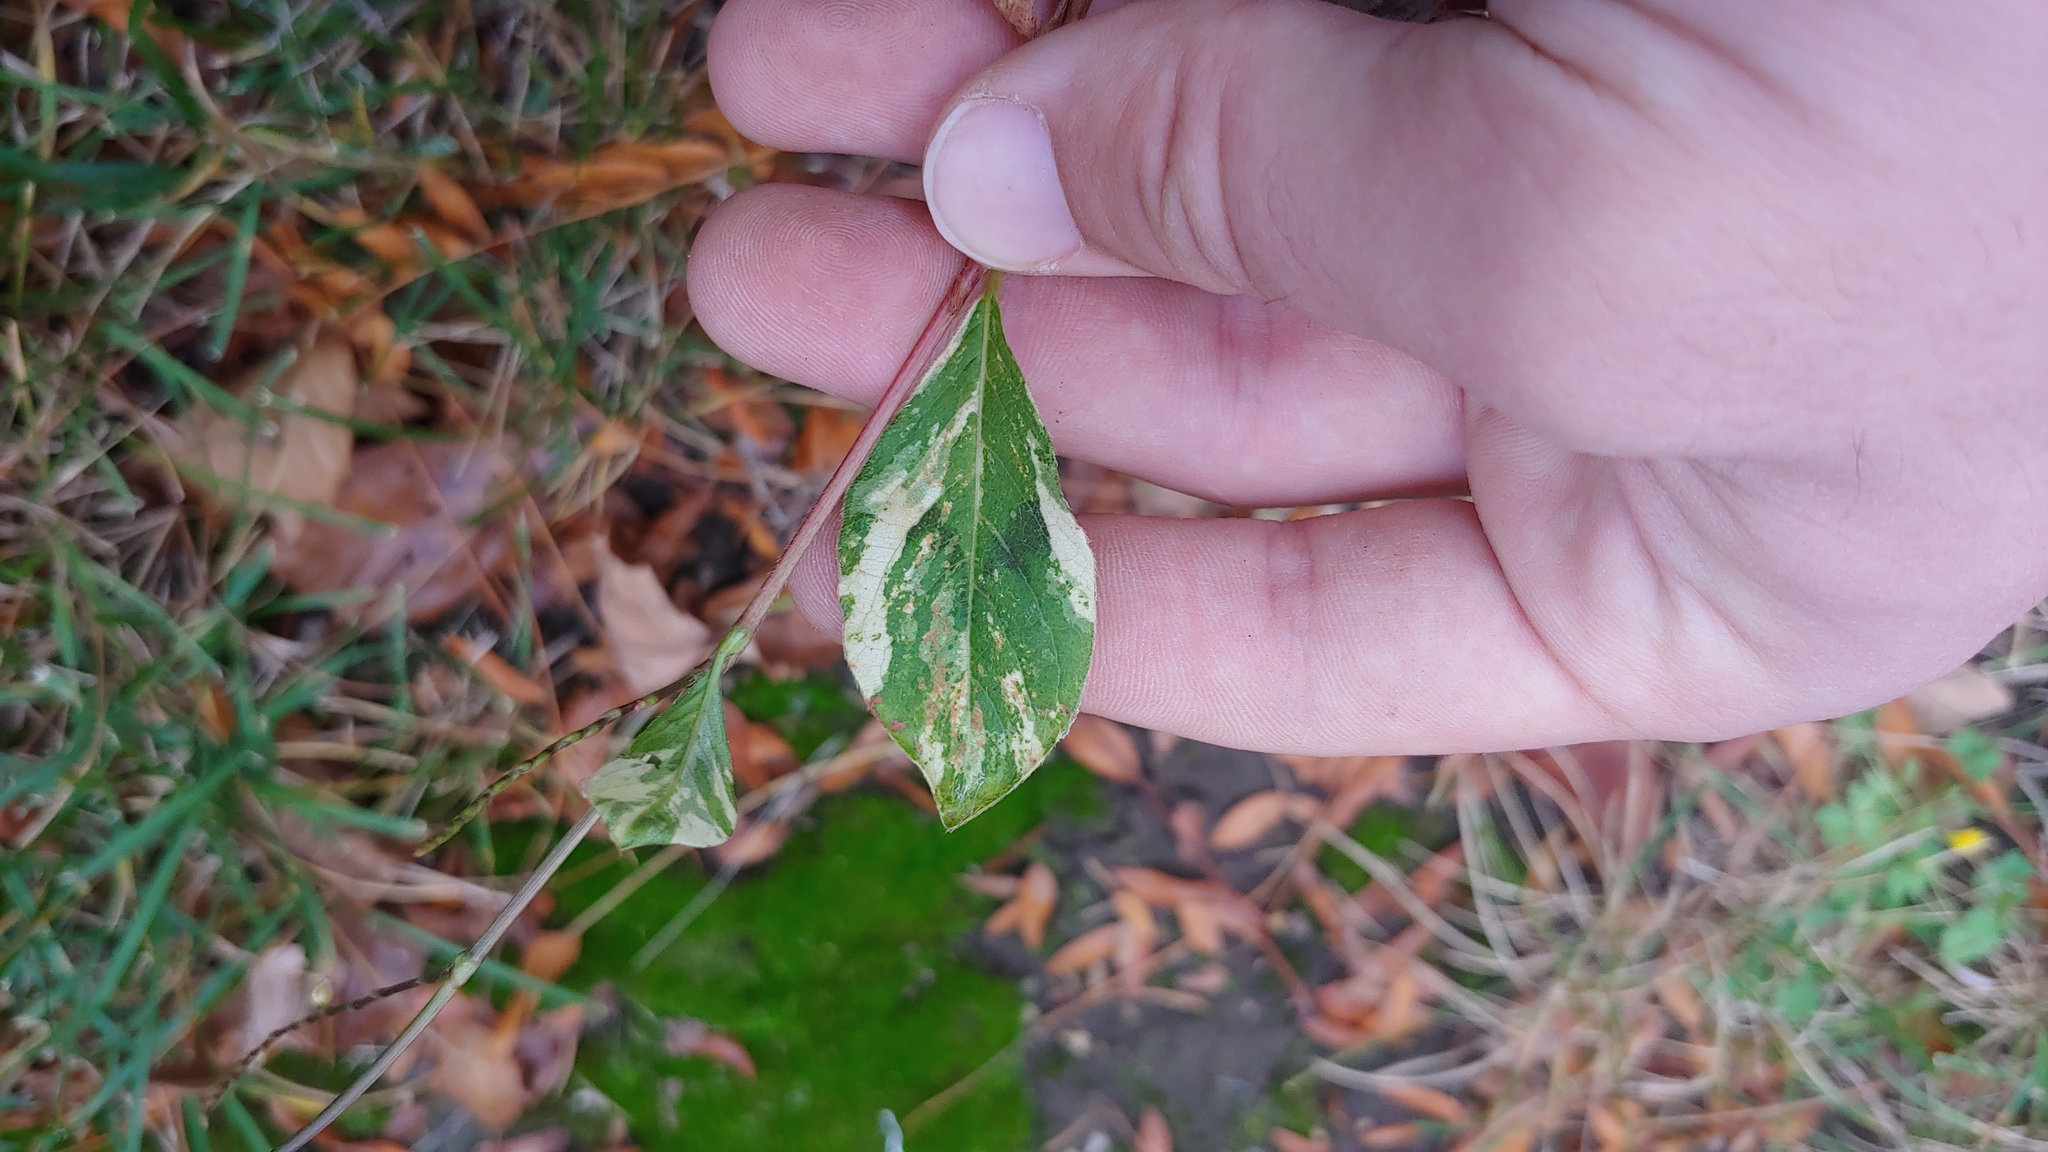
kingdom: Plantae
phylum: Tracheophyta
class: Magnoliopsida
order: Caryophyllales
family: Polygonaceae
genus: Persicaria
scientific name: Persicaria filiformis
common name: Asian jumpseed
